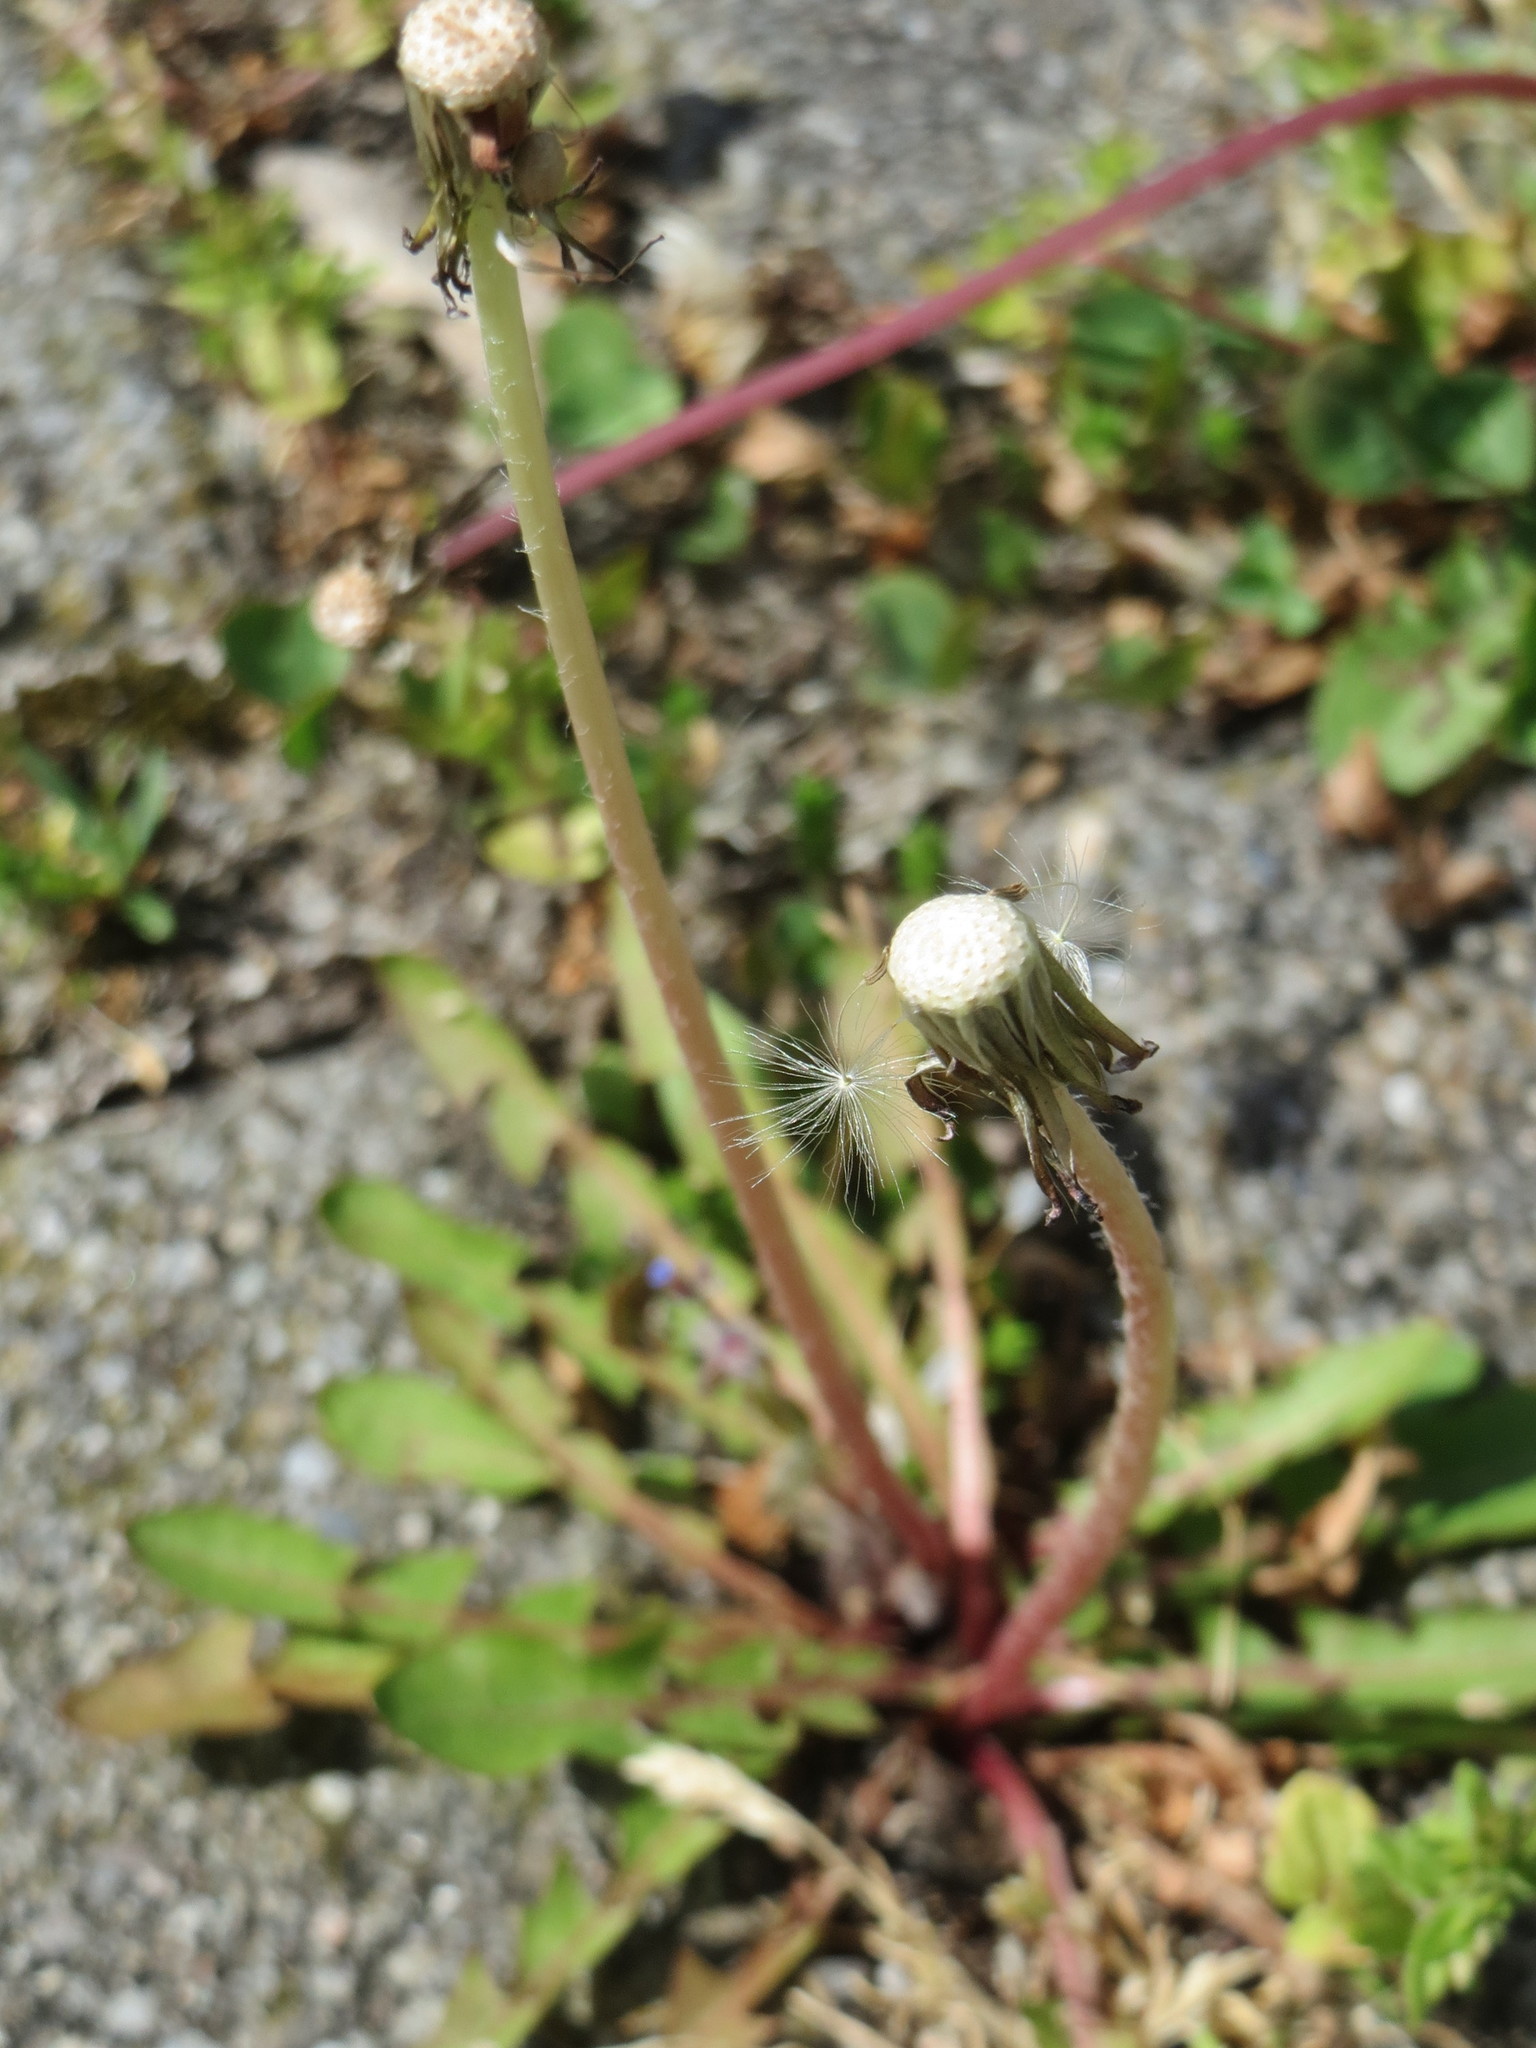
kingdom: Plantae
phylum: Tracheophyta
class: Magnoliopsida
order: Asterales
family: Asteraceae
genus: Taraxacum
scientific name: Taraxacum officinale
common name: Common dandelion
